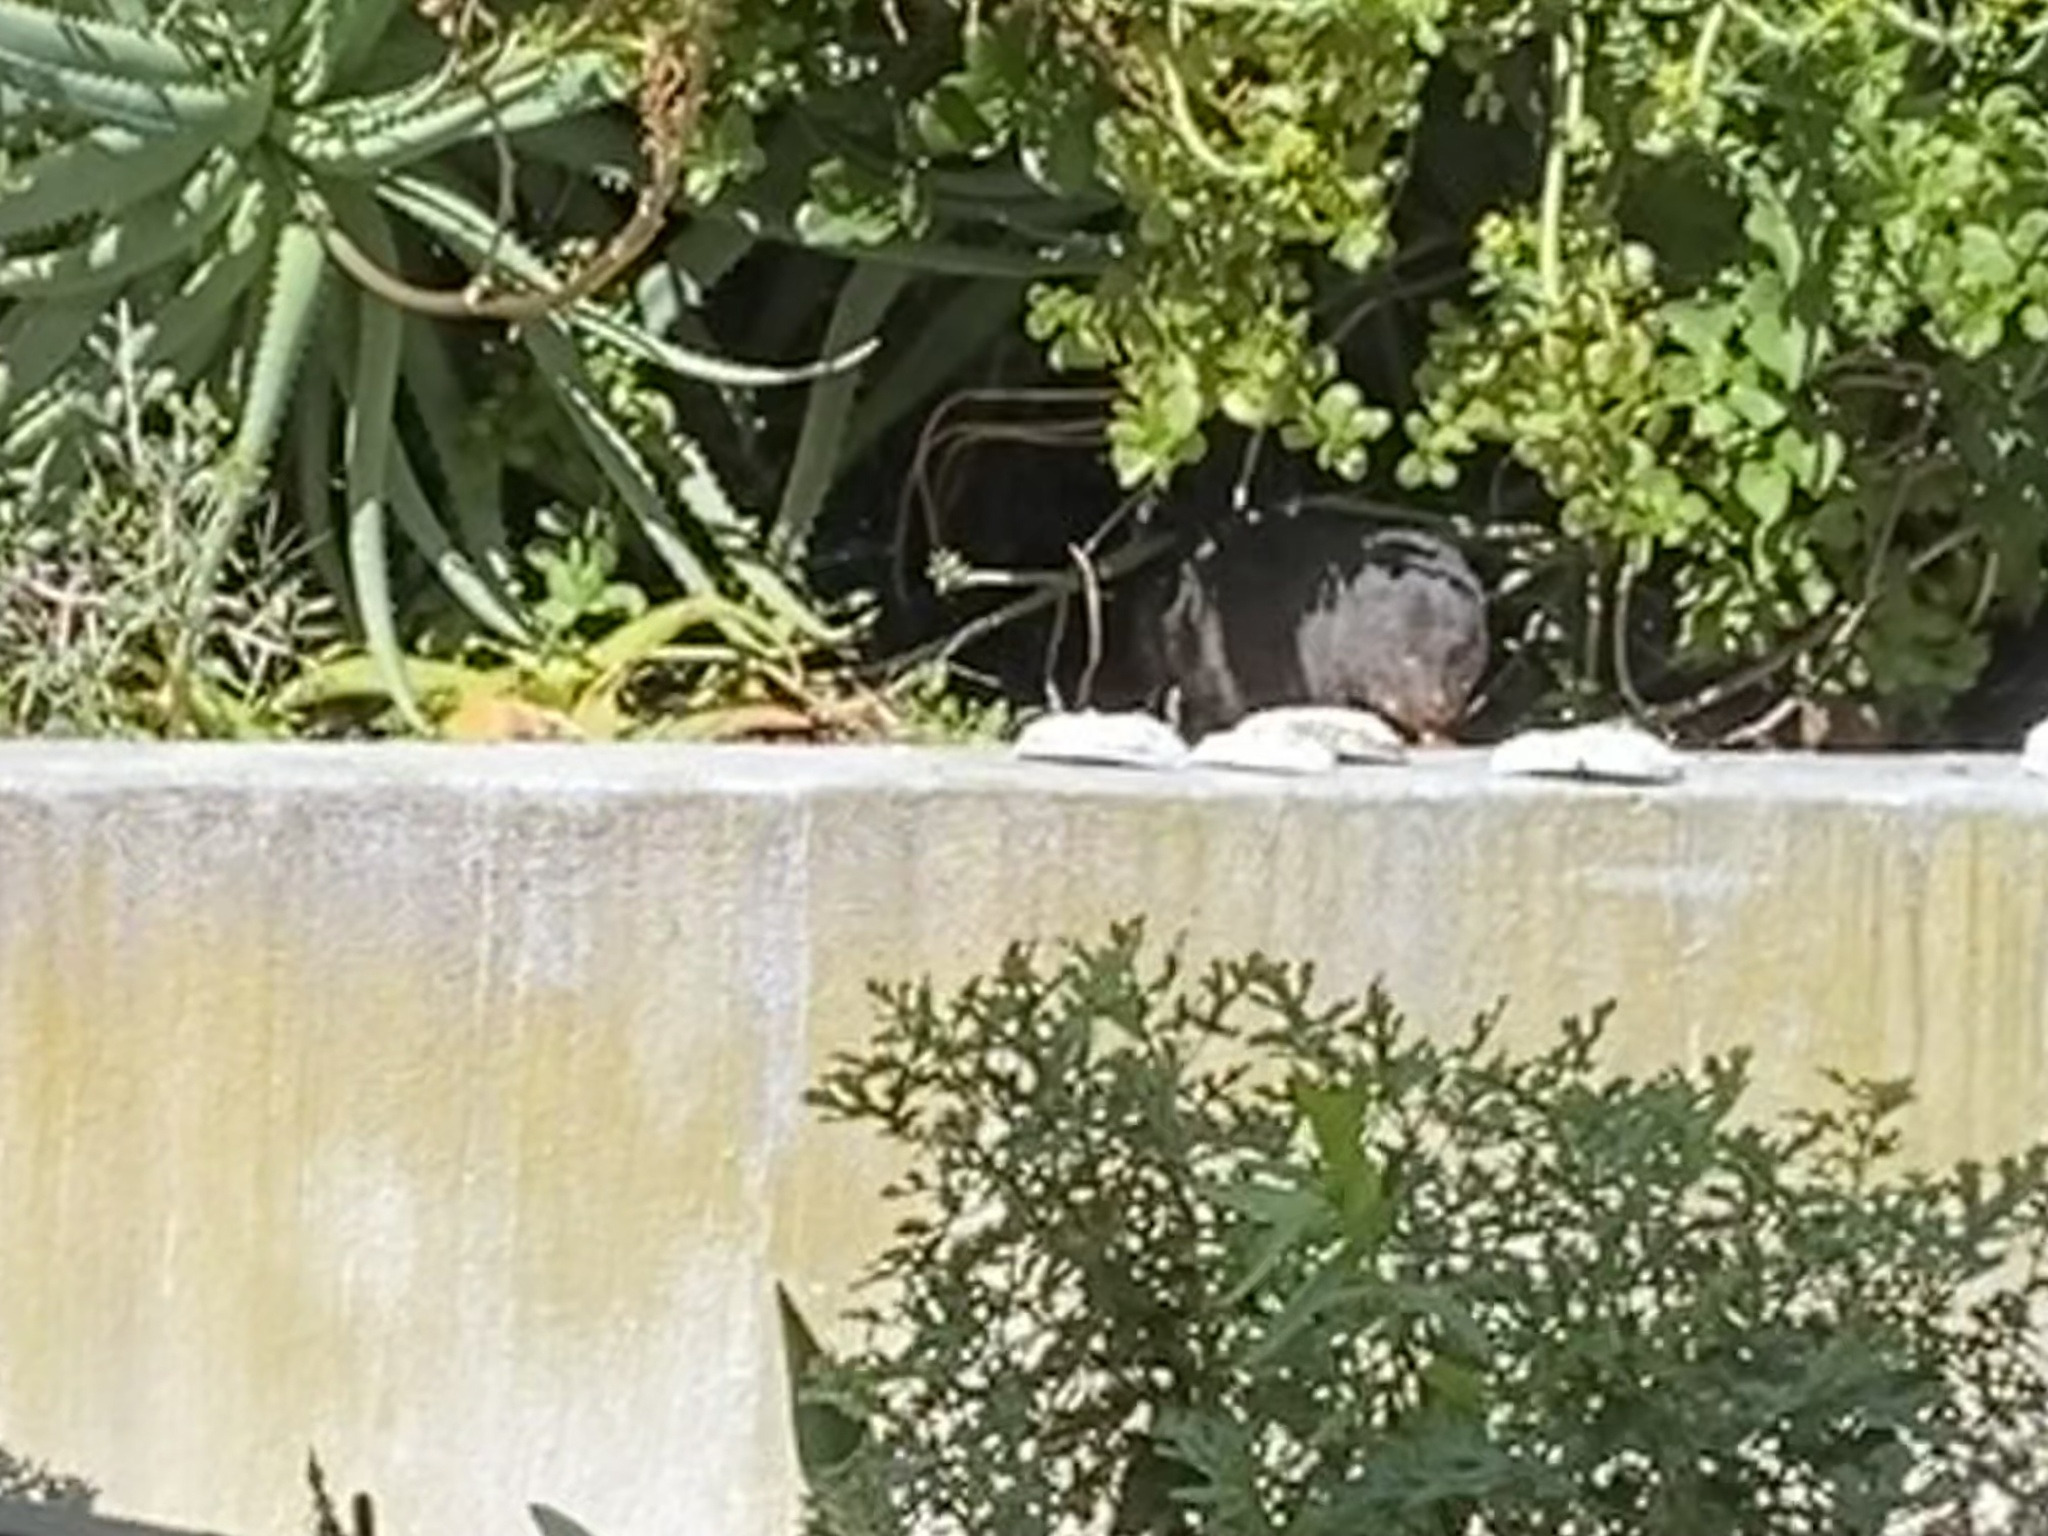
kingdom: Animalia
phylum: Chordata
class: Mammalia
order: Carnivora
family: Herpestidae
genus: Atilax
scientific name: Atilax paludinosus
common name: Marsh mongoose
